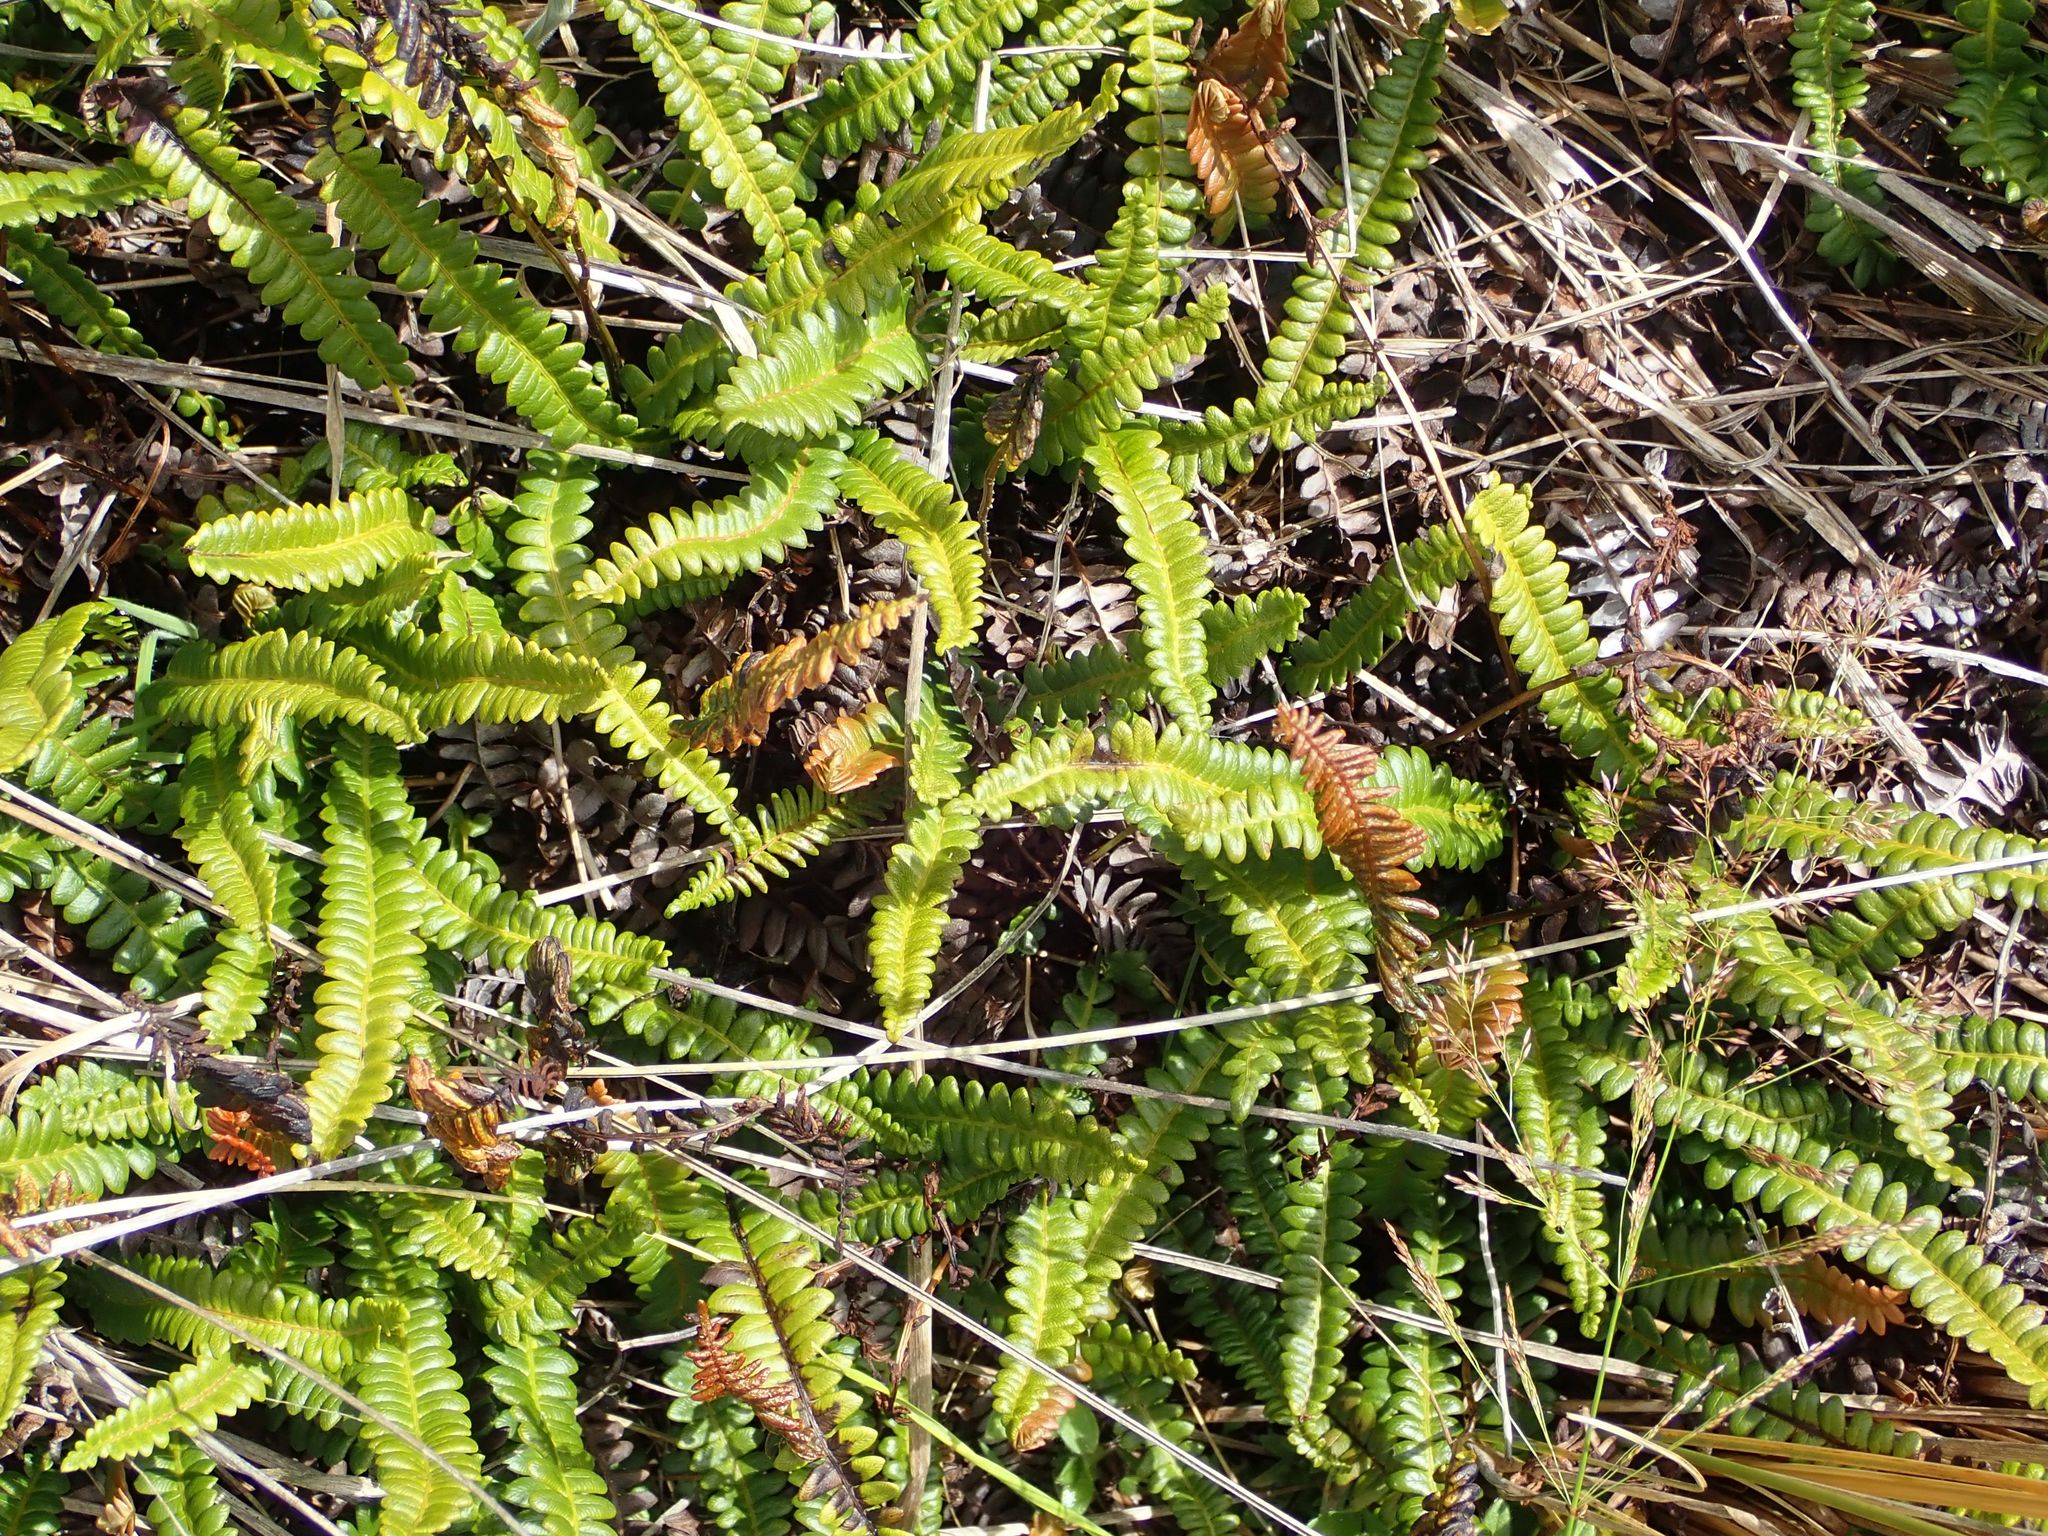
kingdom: Plantae
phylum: Tracheophyta
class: Polypodiopsida
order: Polypodiales
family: Blechnaceae
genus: Austroblechnum
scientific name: Austroblechnum penna-marina
